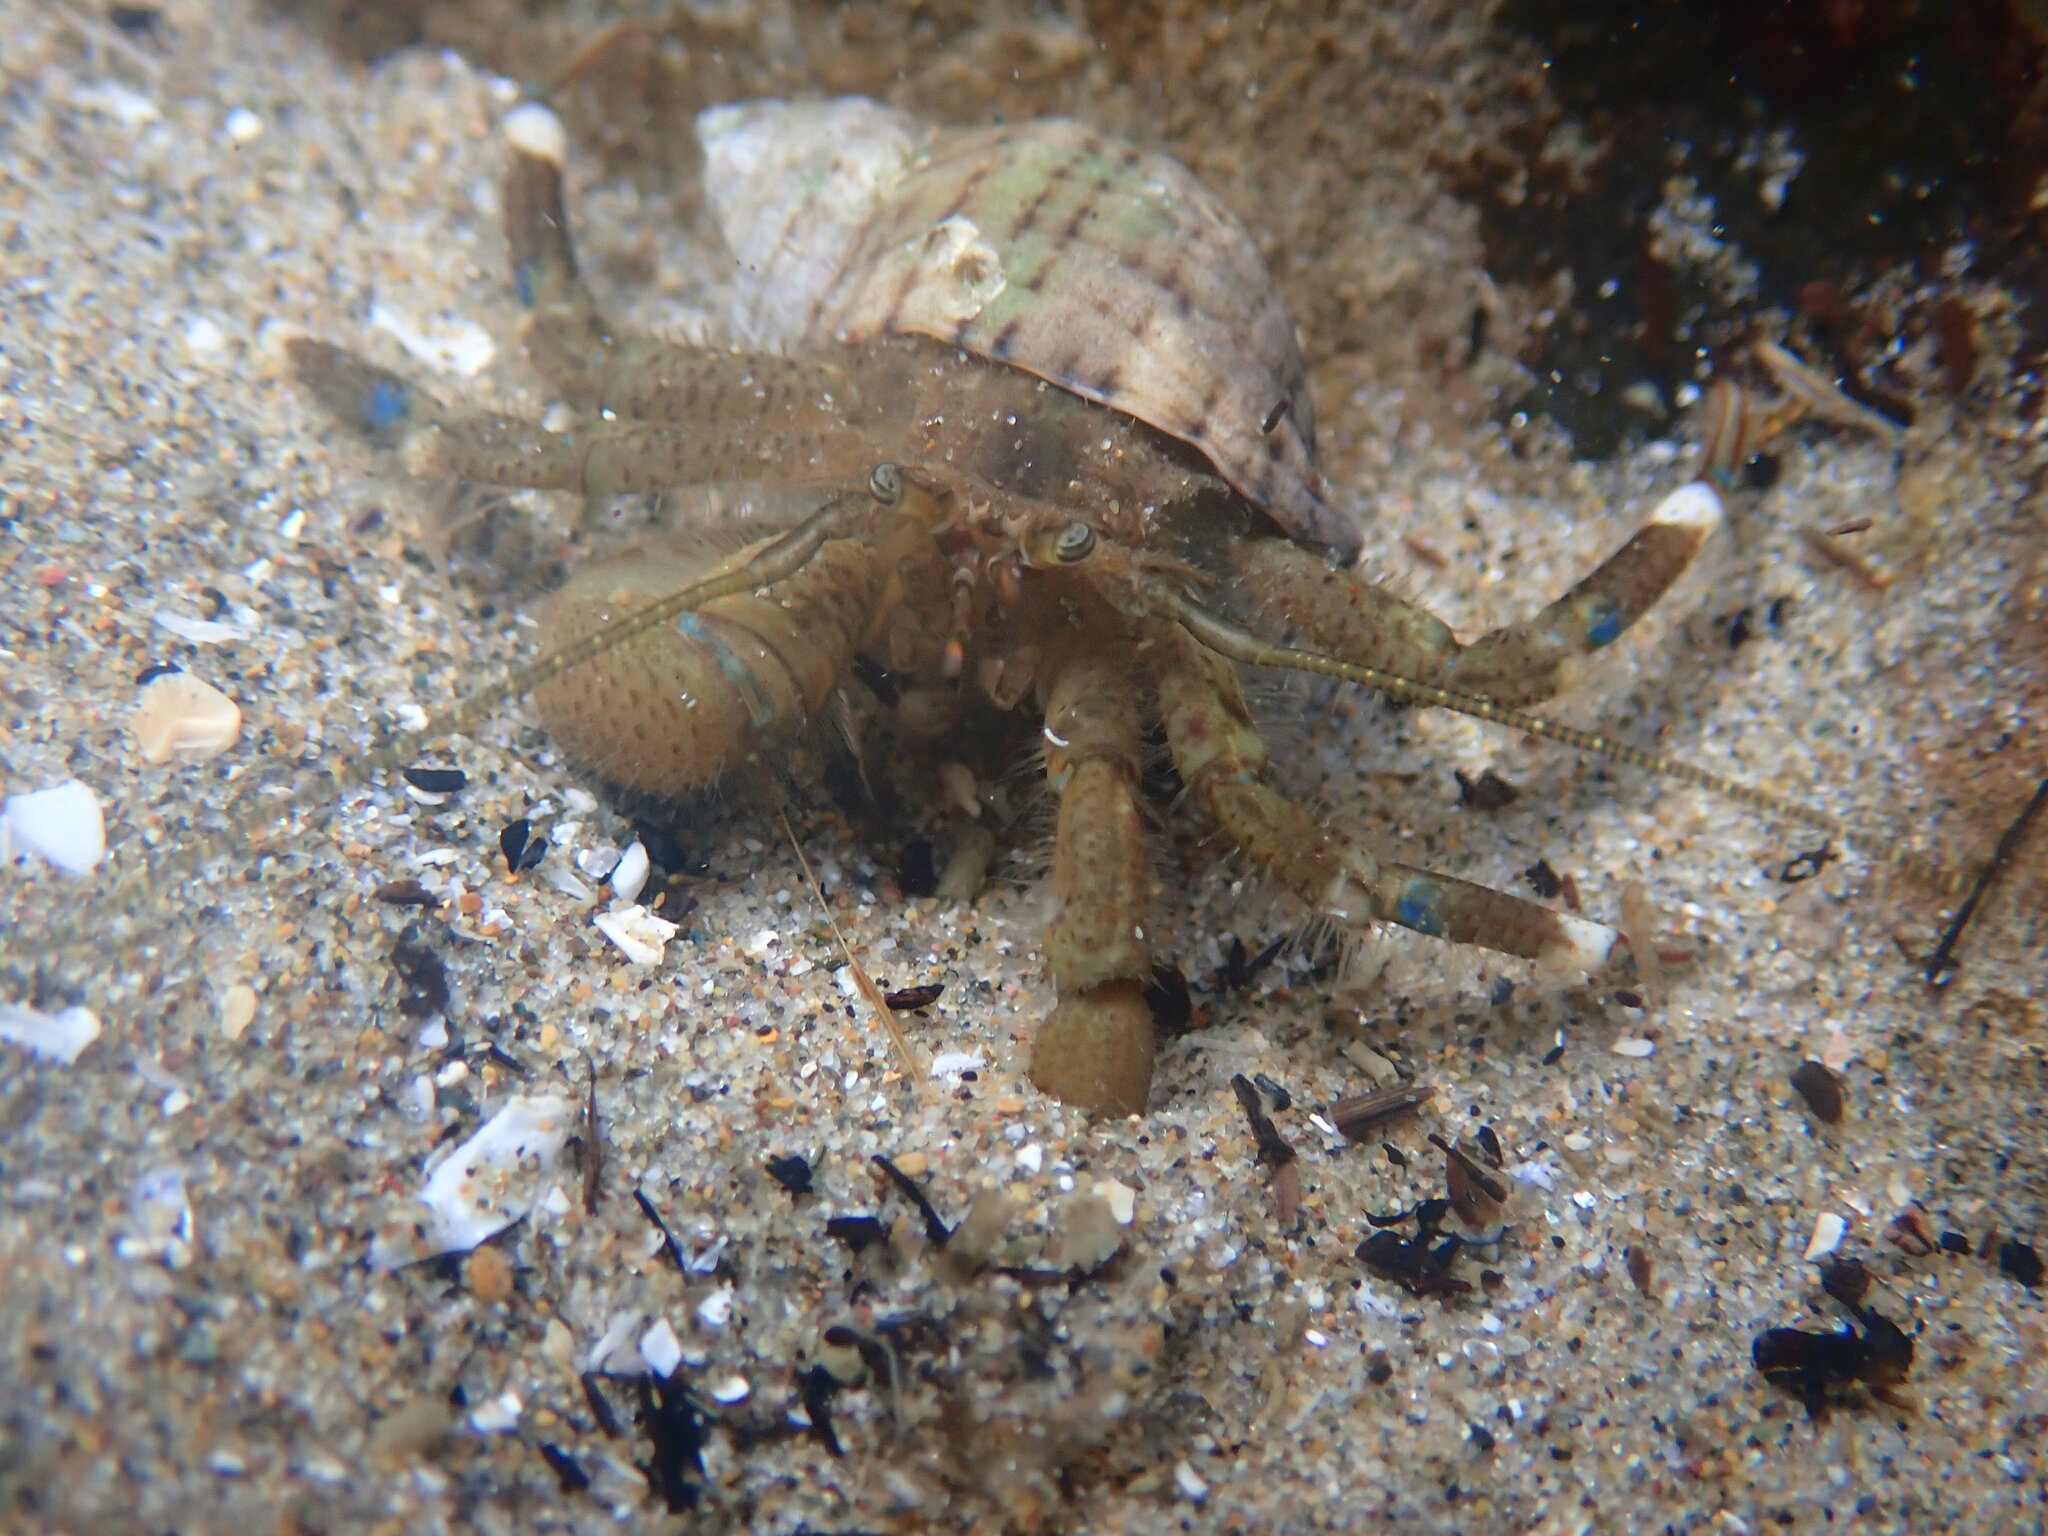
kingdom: Animalia
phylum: Arthropoda
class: Malacostraca
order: Decapoda
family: Paguridae
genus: Pagurus
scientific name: Pagurus hirsutiusculus
